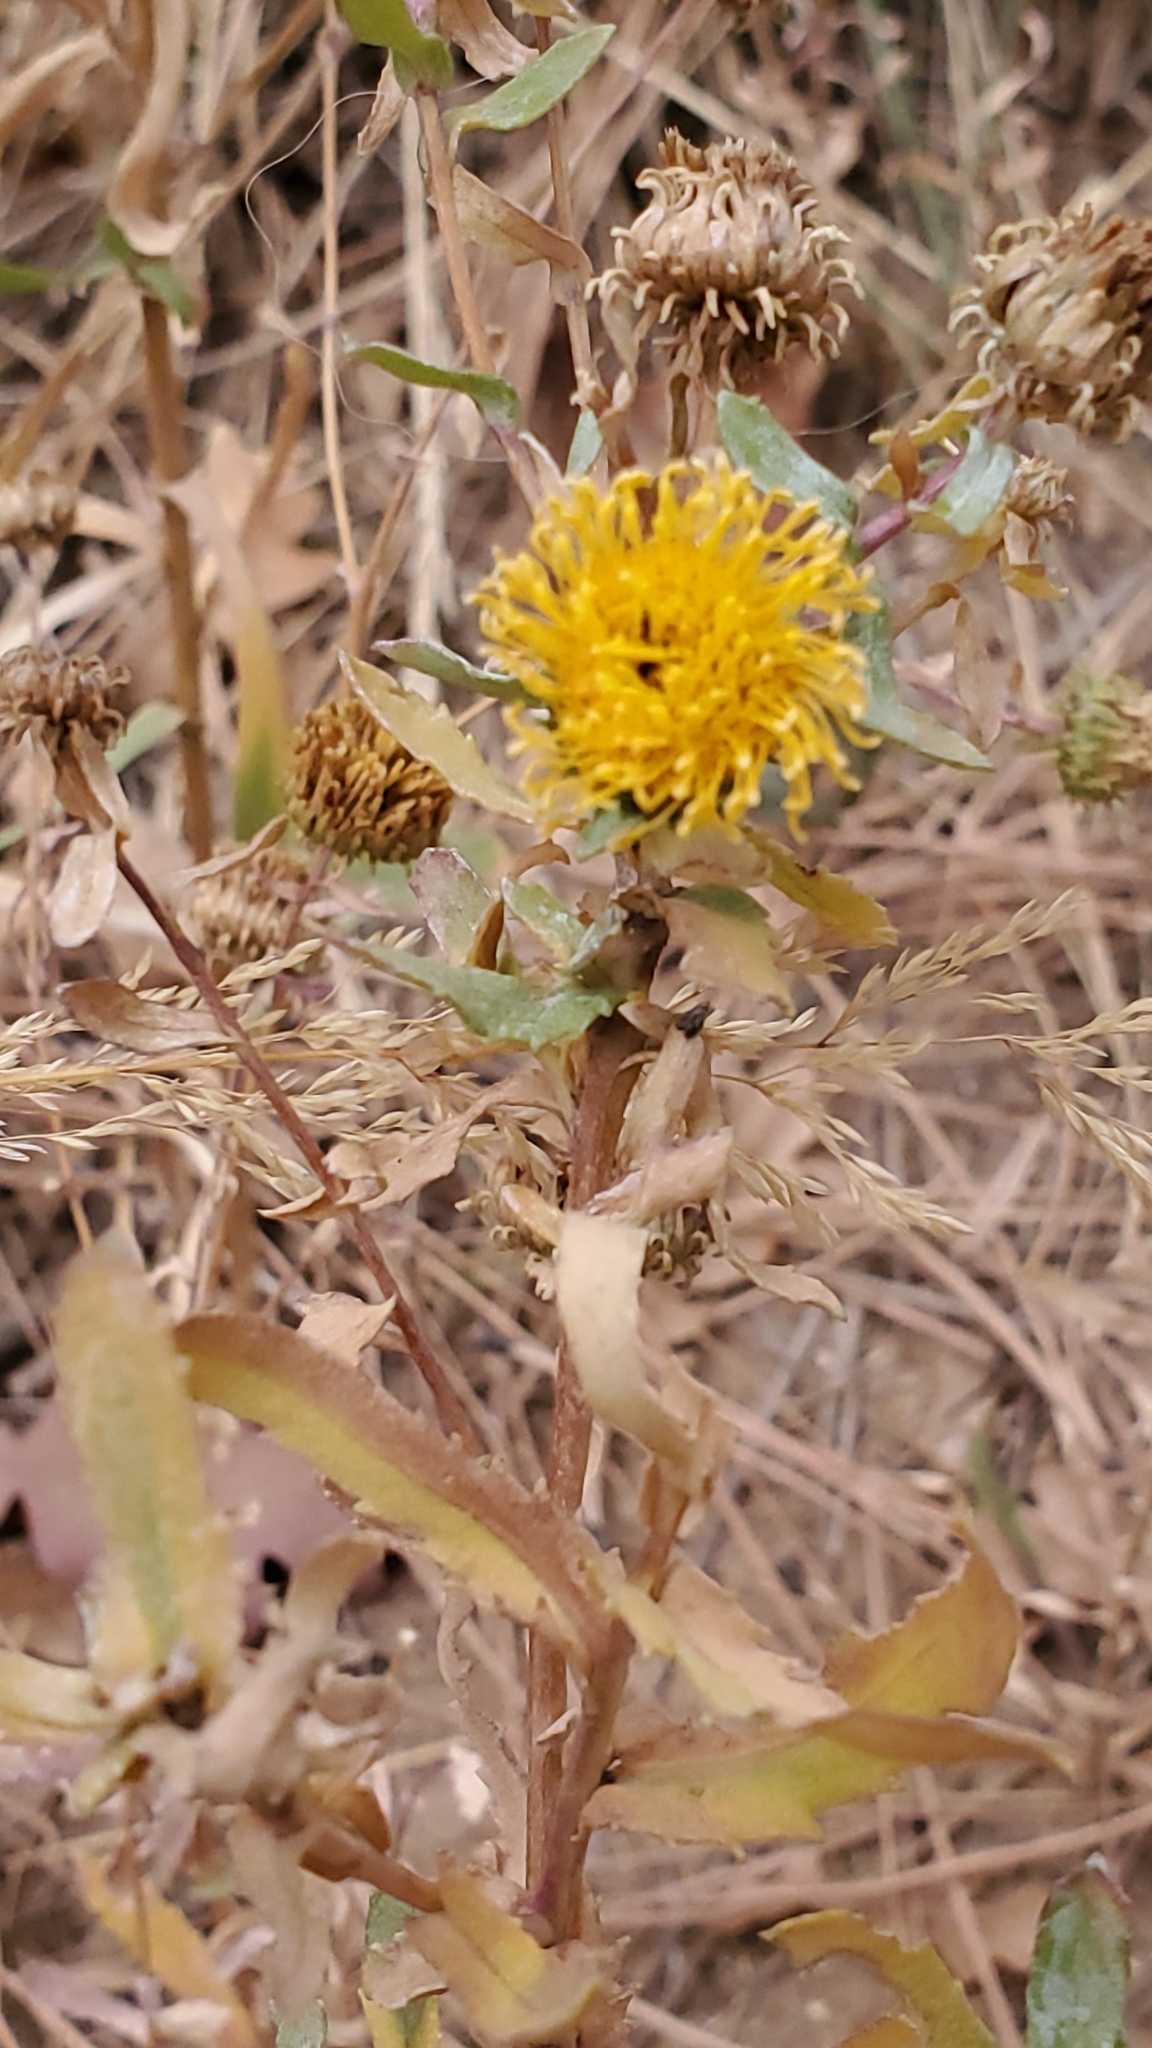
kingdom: Plantae
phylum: Tracheophyta
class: Magnoliopsida
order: Asterales
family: Asteraceae
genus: Grindelia
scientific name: Grindelia squarrosa
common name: Curly-cup gumweed
